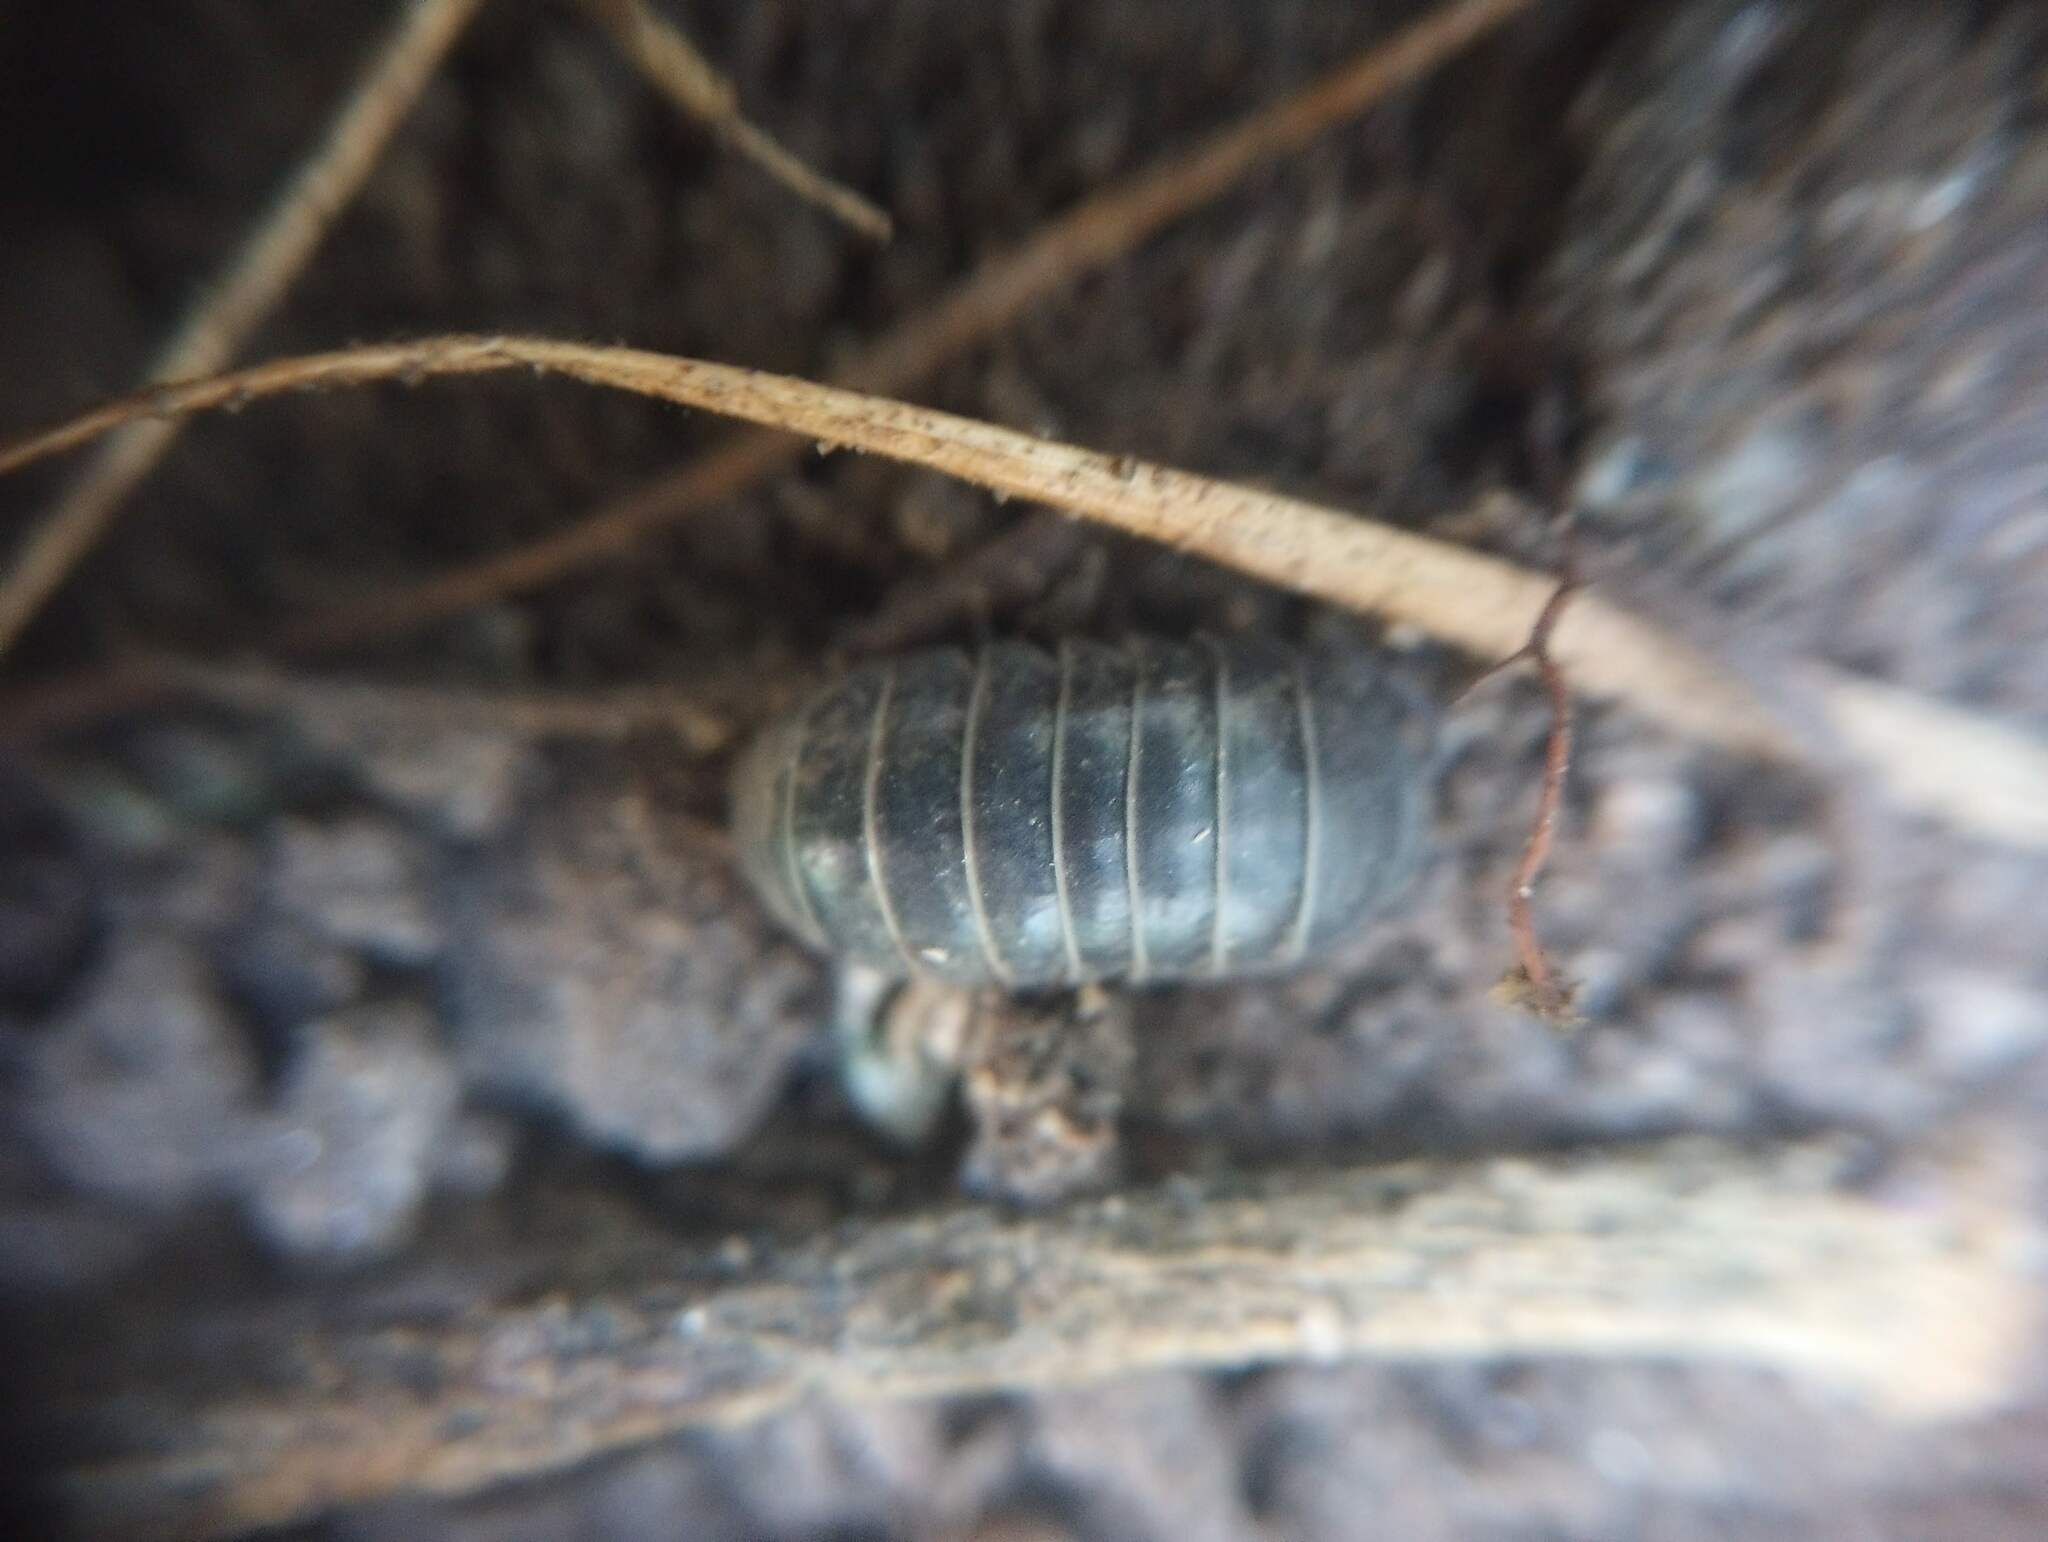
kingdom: Animalia
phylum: Arthropoda
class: Malacostraca
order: Isopoda
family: Armadillidiidae
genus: Armadillidium
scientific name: Armadillidium vulgare
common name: Common pill woodlouse
